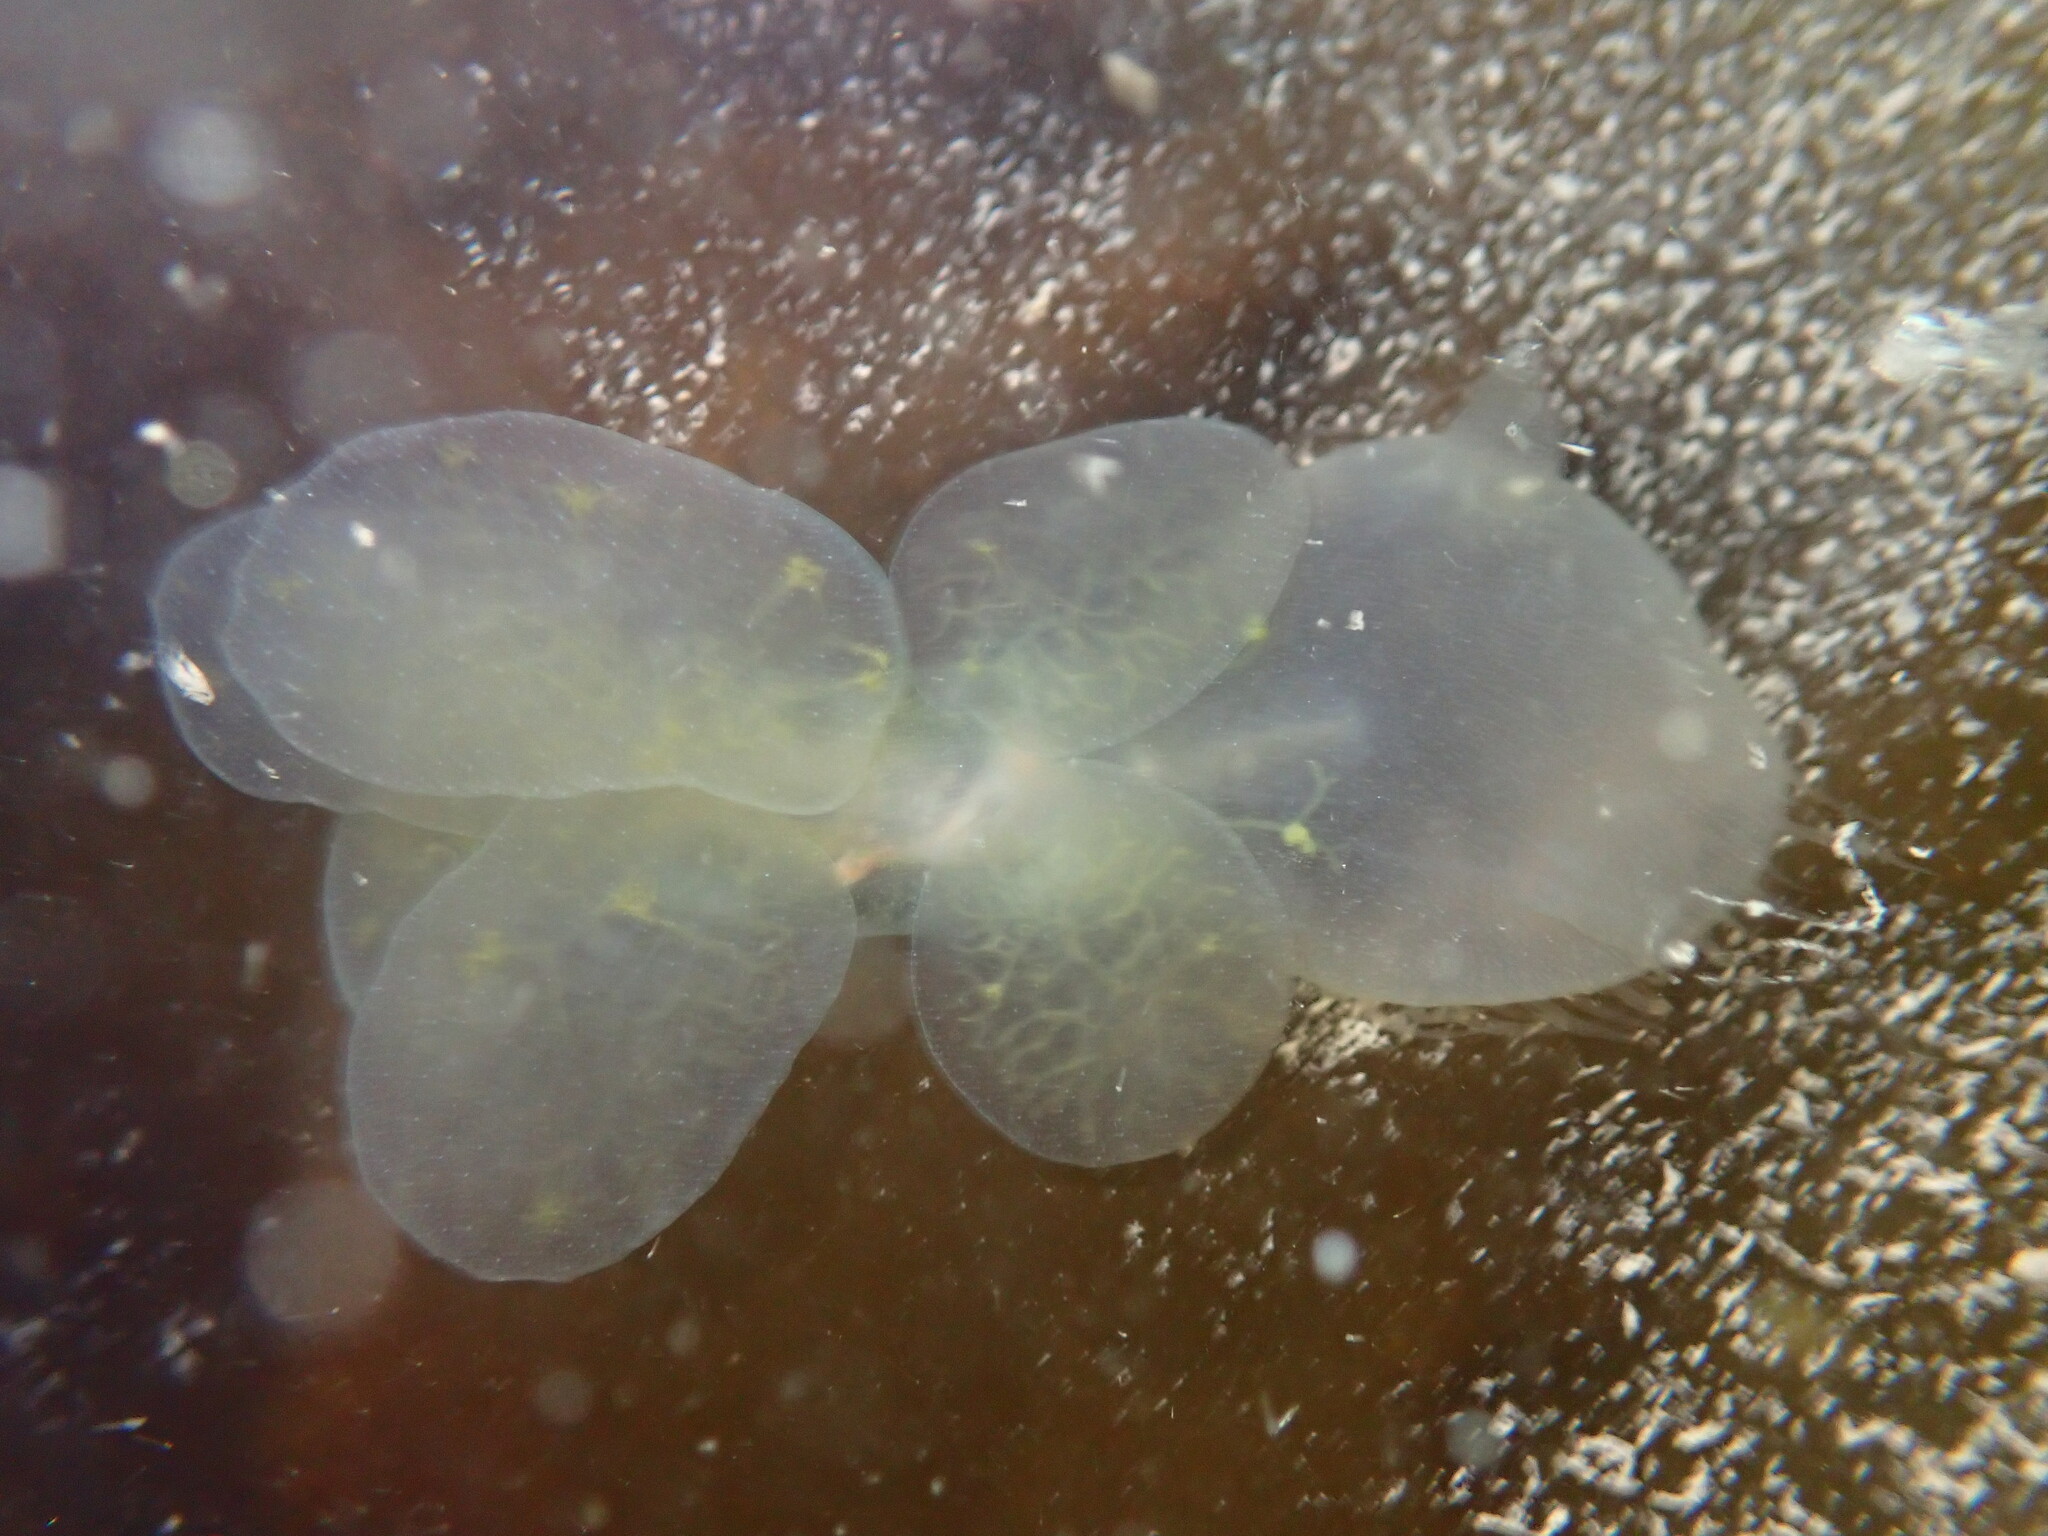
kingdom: Animalia
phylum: Mollusca
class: Gastropoda
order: Nudibranchia
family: Tethydidae
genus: Melibe
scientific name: Melibe leonina
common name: Lion nudibranch
